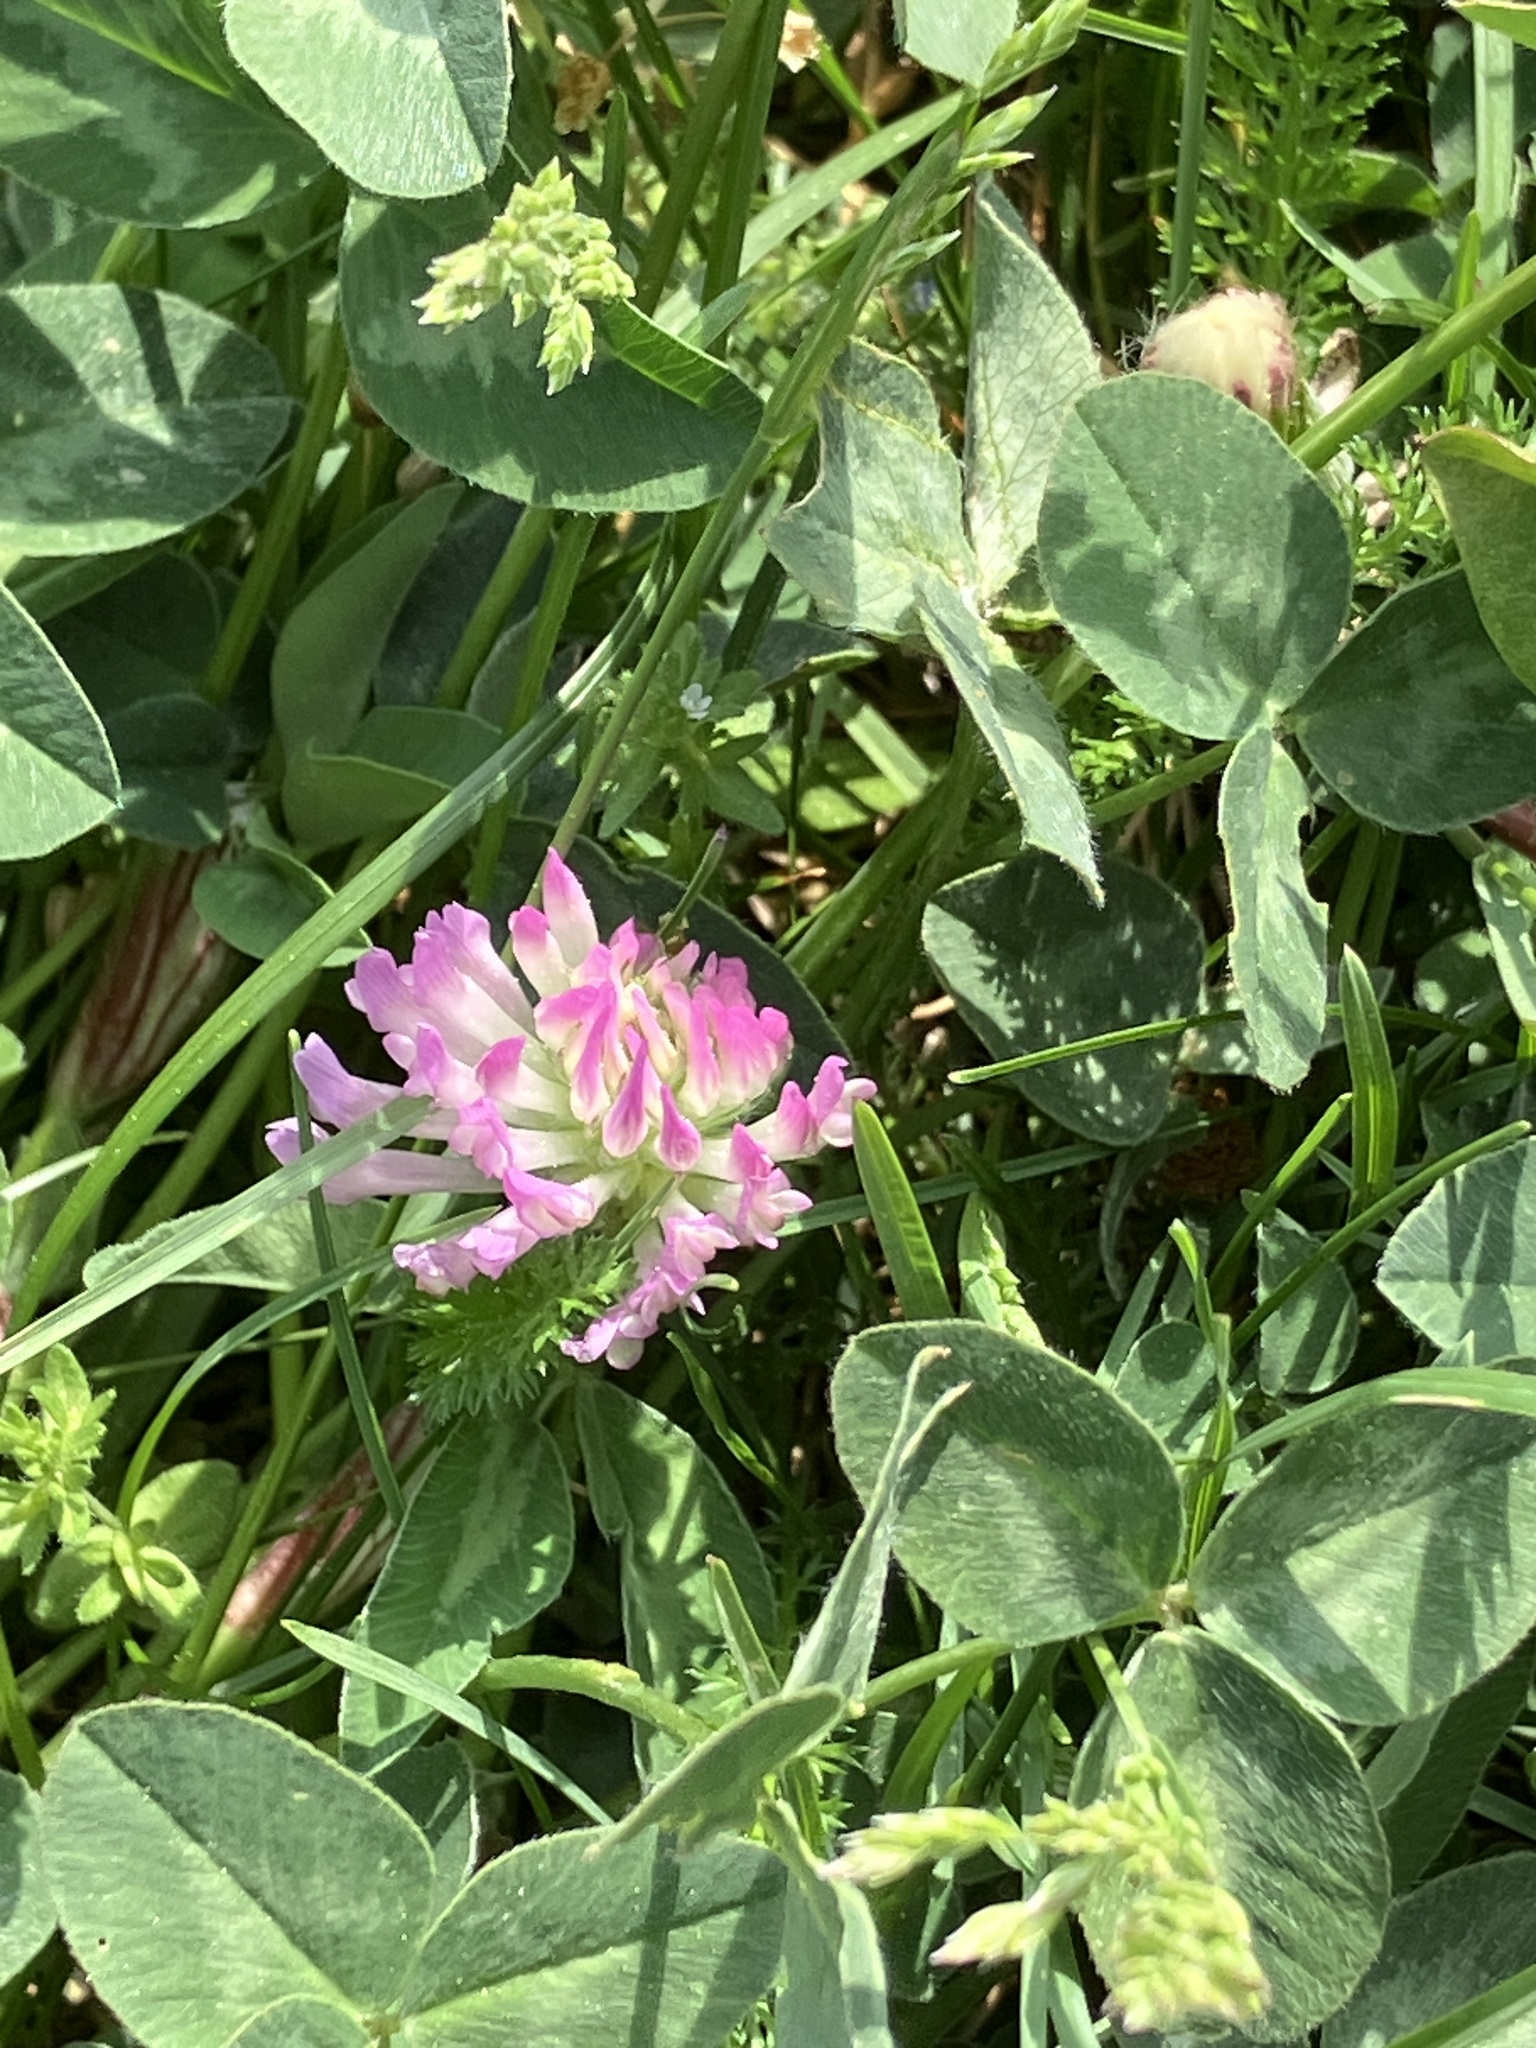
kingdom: Plantae
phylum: Tracheophyta
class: Magnoliopsida
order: Fabales
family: Fabaceae
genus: Trifolium
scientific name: Trifolium pratense
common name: Red clover
